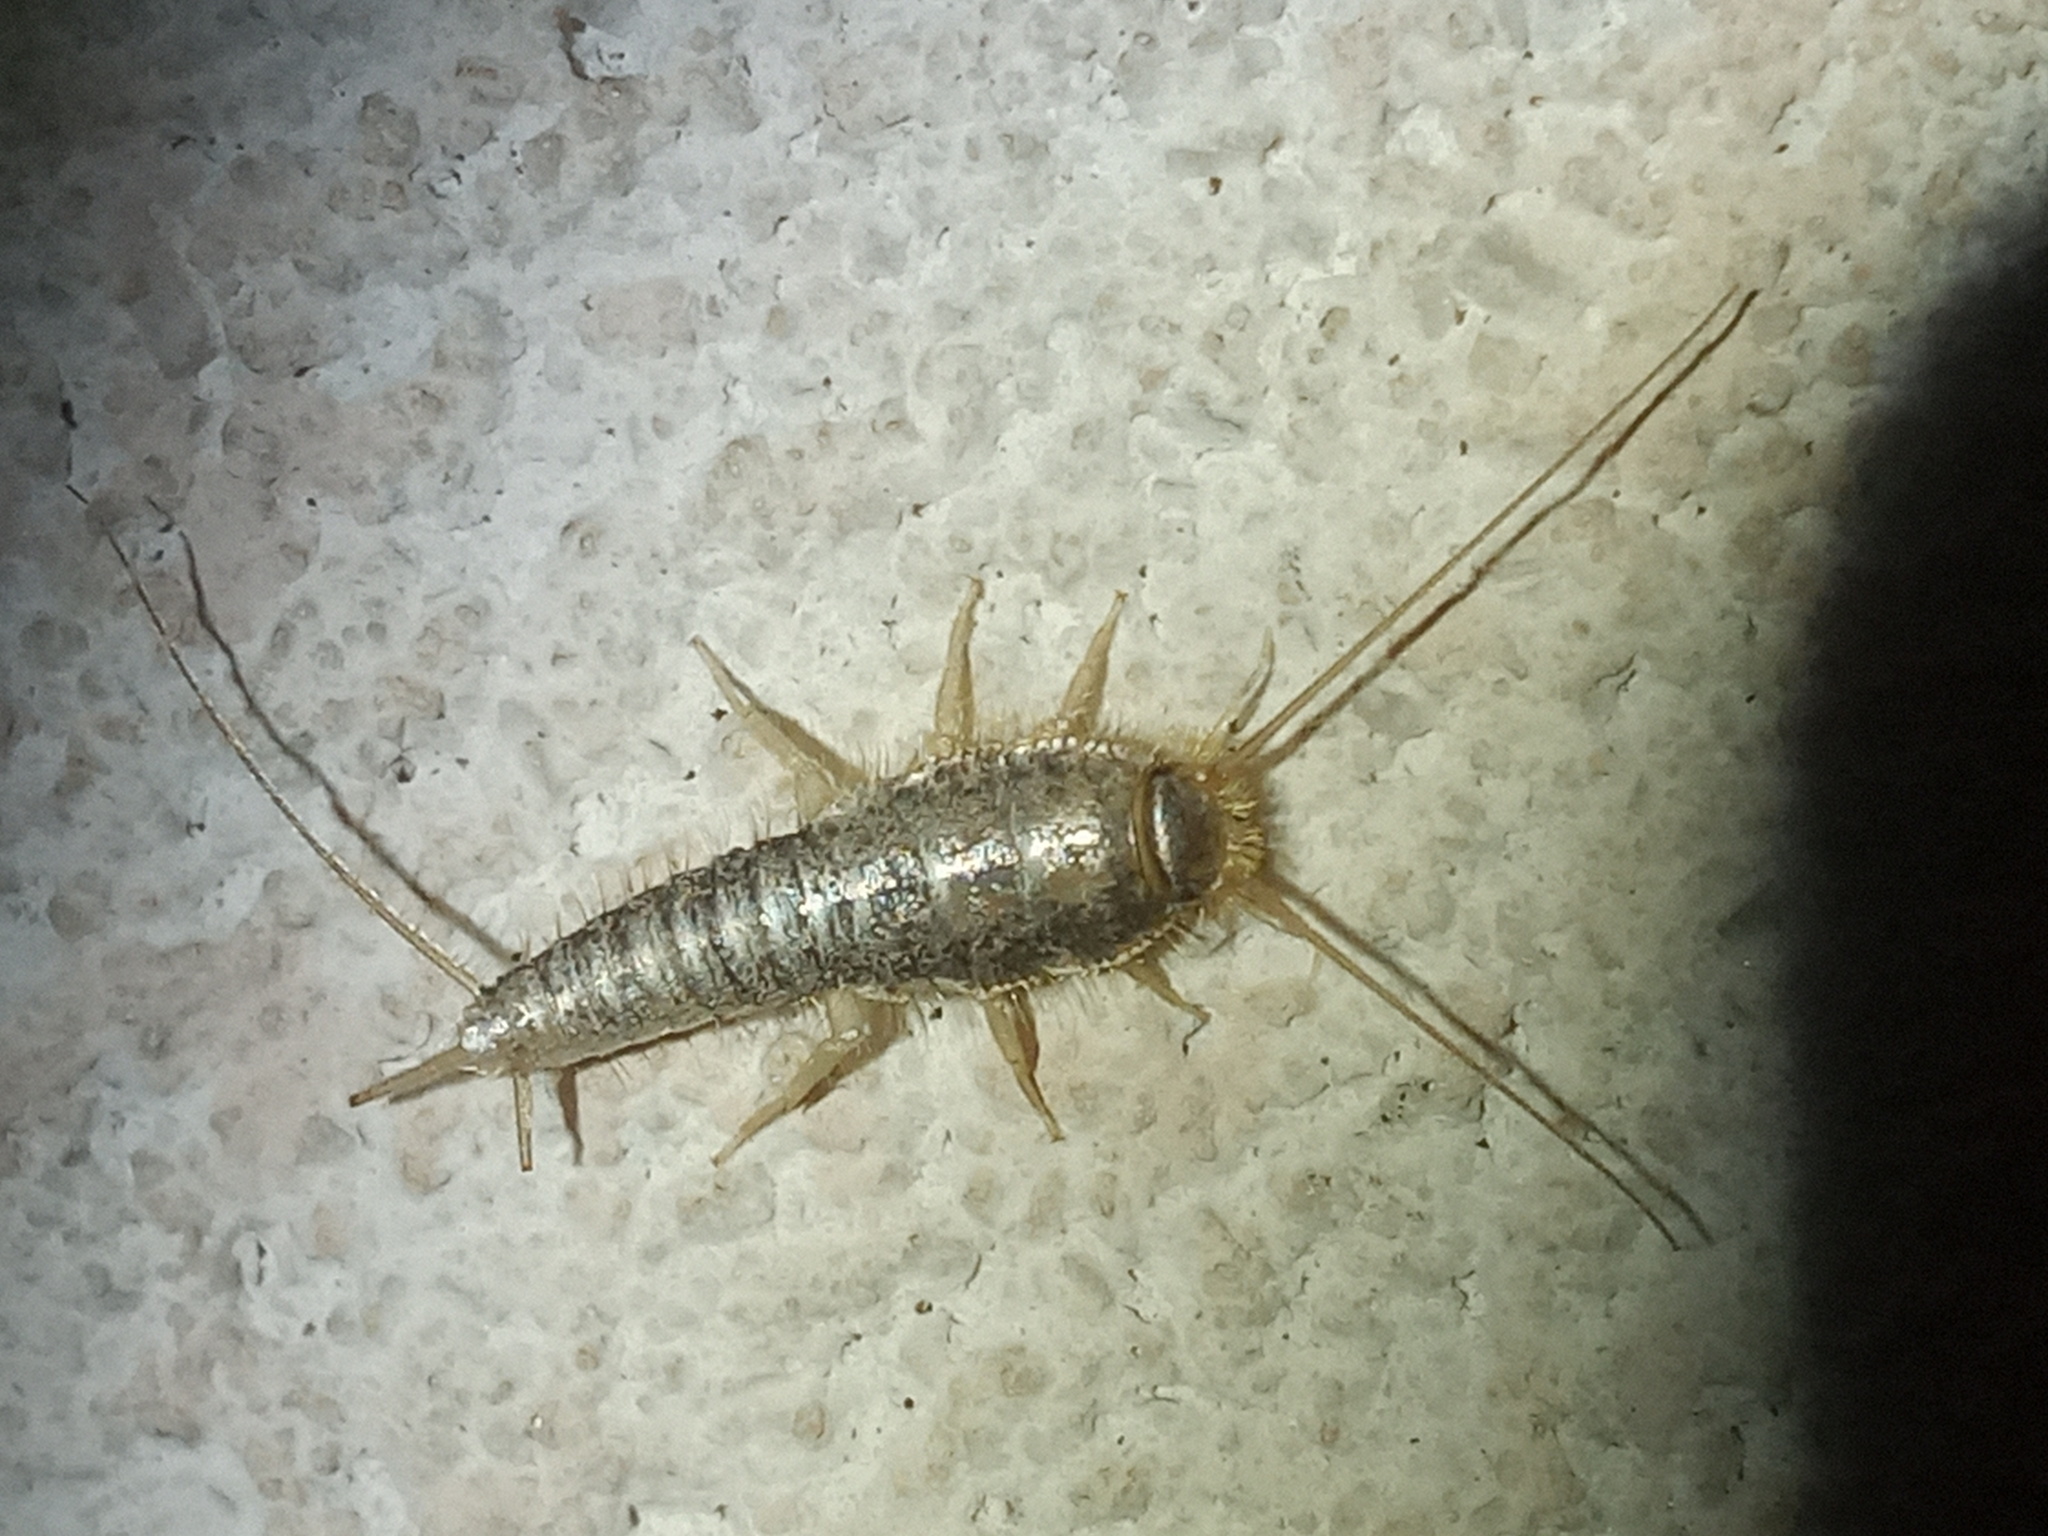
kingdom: Animalia
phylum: Arthropoda
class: Insecta
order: Zygentoma
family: Lepismatidae
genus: Ctenolepisma
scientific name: Ctenolepisma longicaudatum
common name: Silverfish
